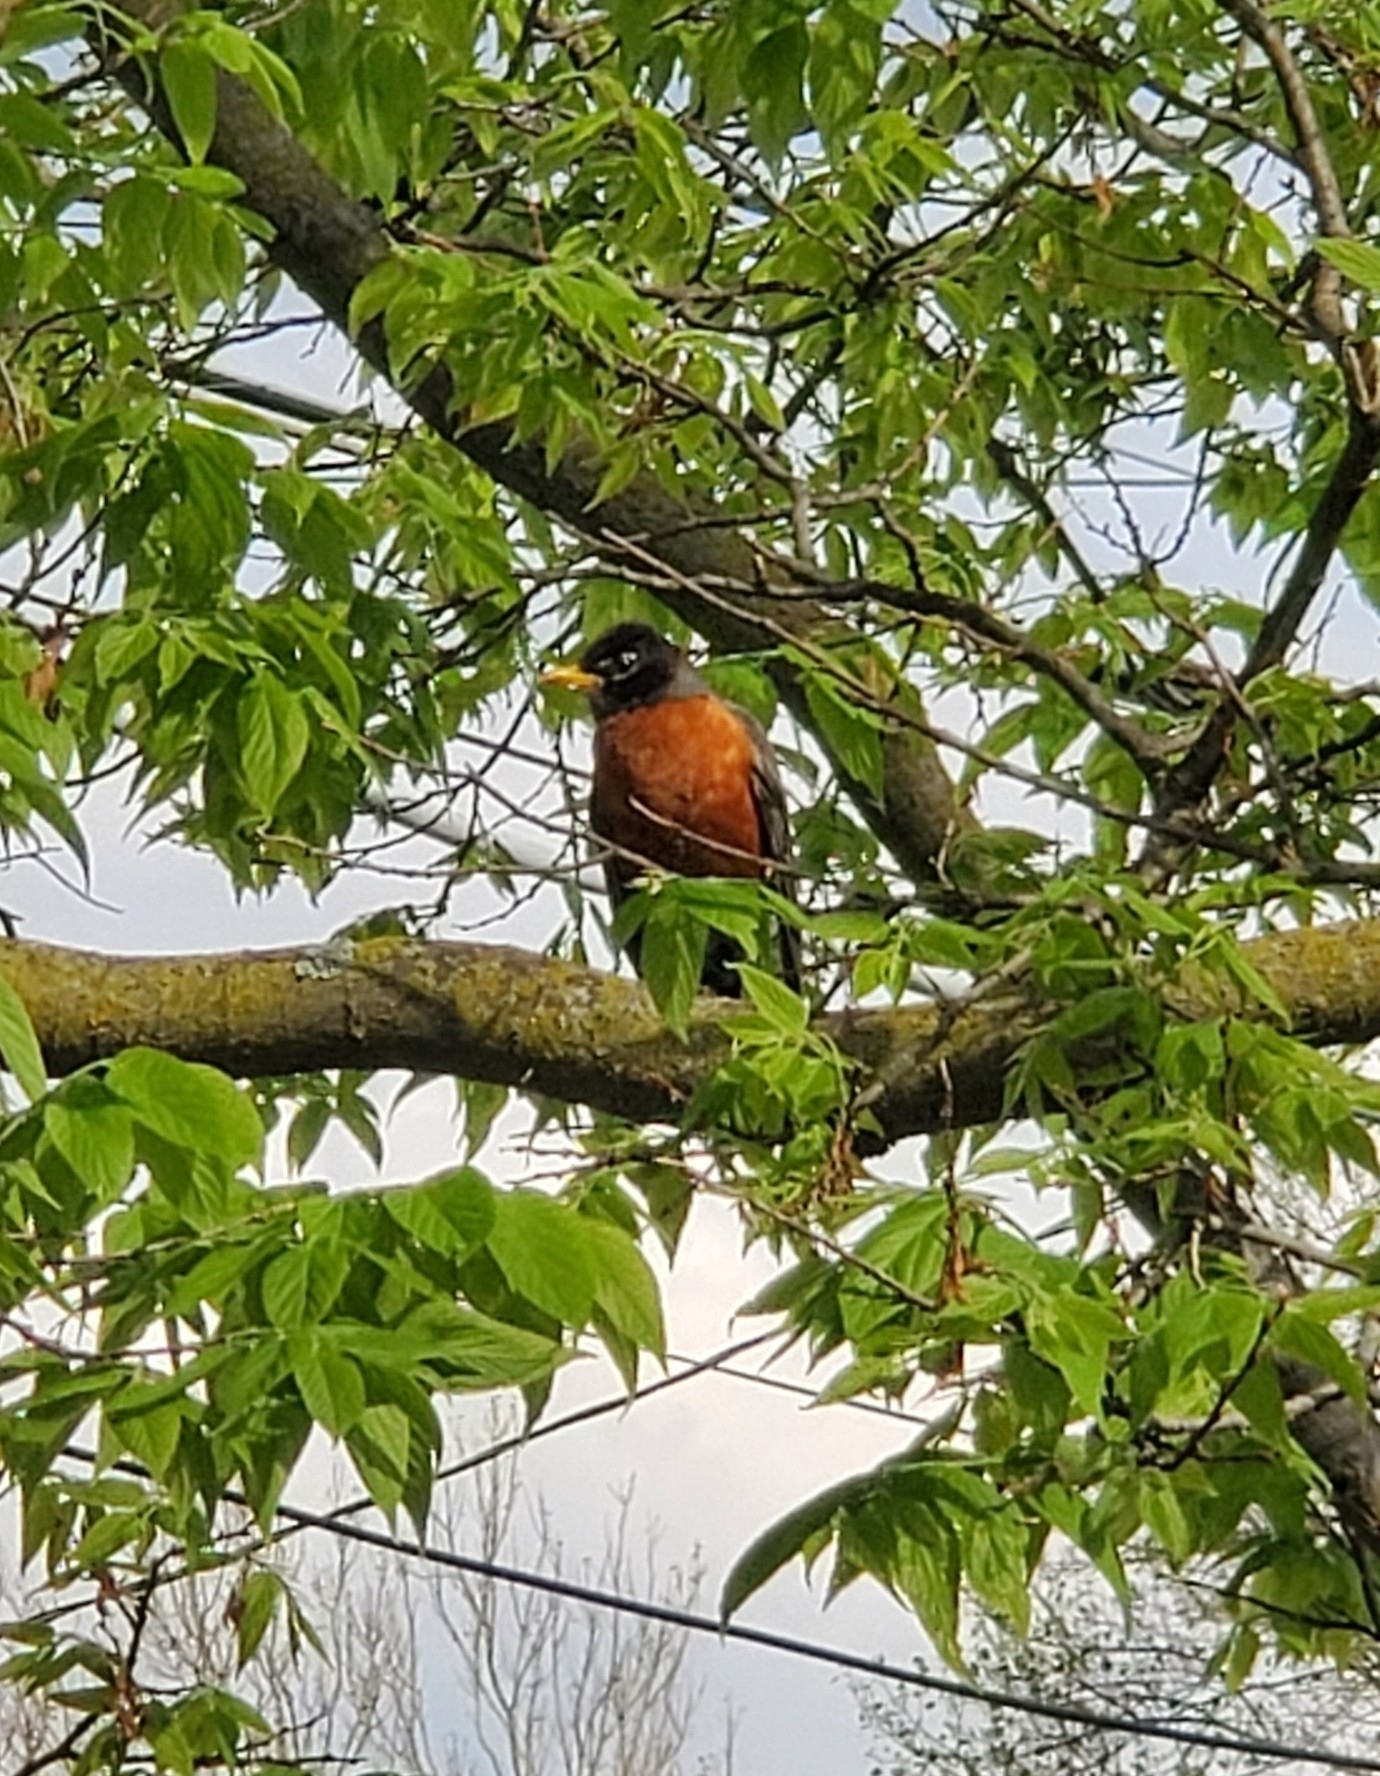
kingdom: Animalia
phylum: Chordata
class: Aves
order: Passeriformes
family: Turdidae
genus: Turdus
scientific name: Turdus migratorius
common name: American robin
